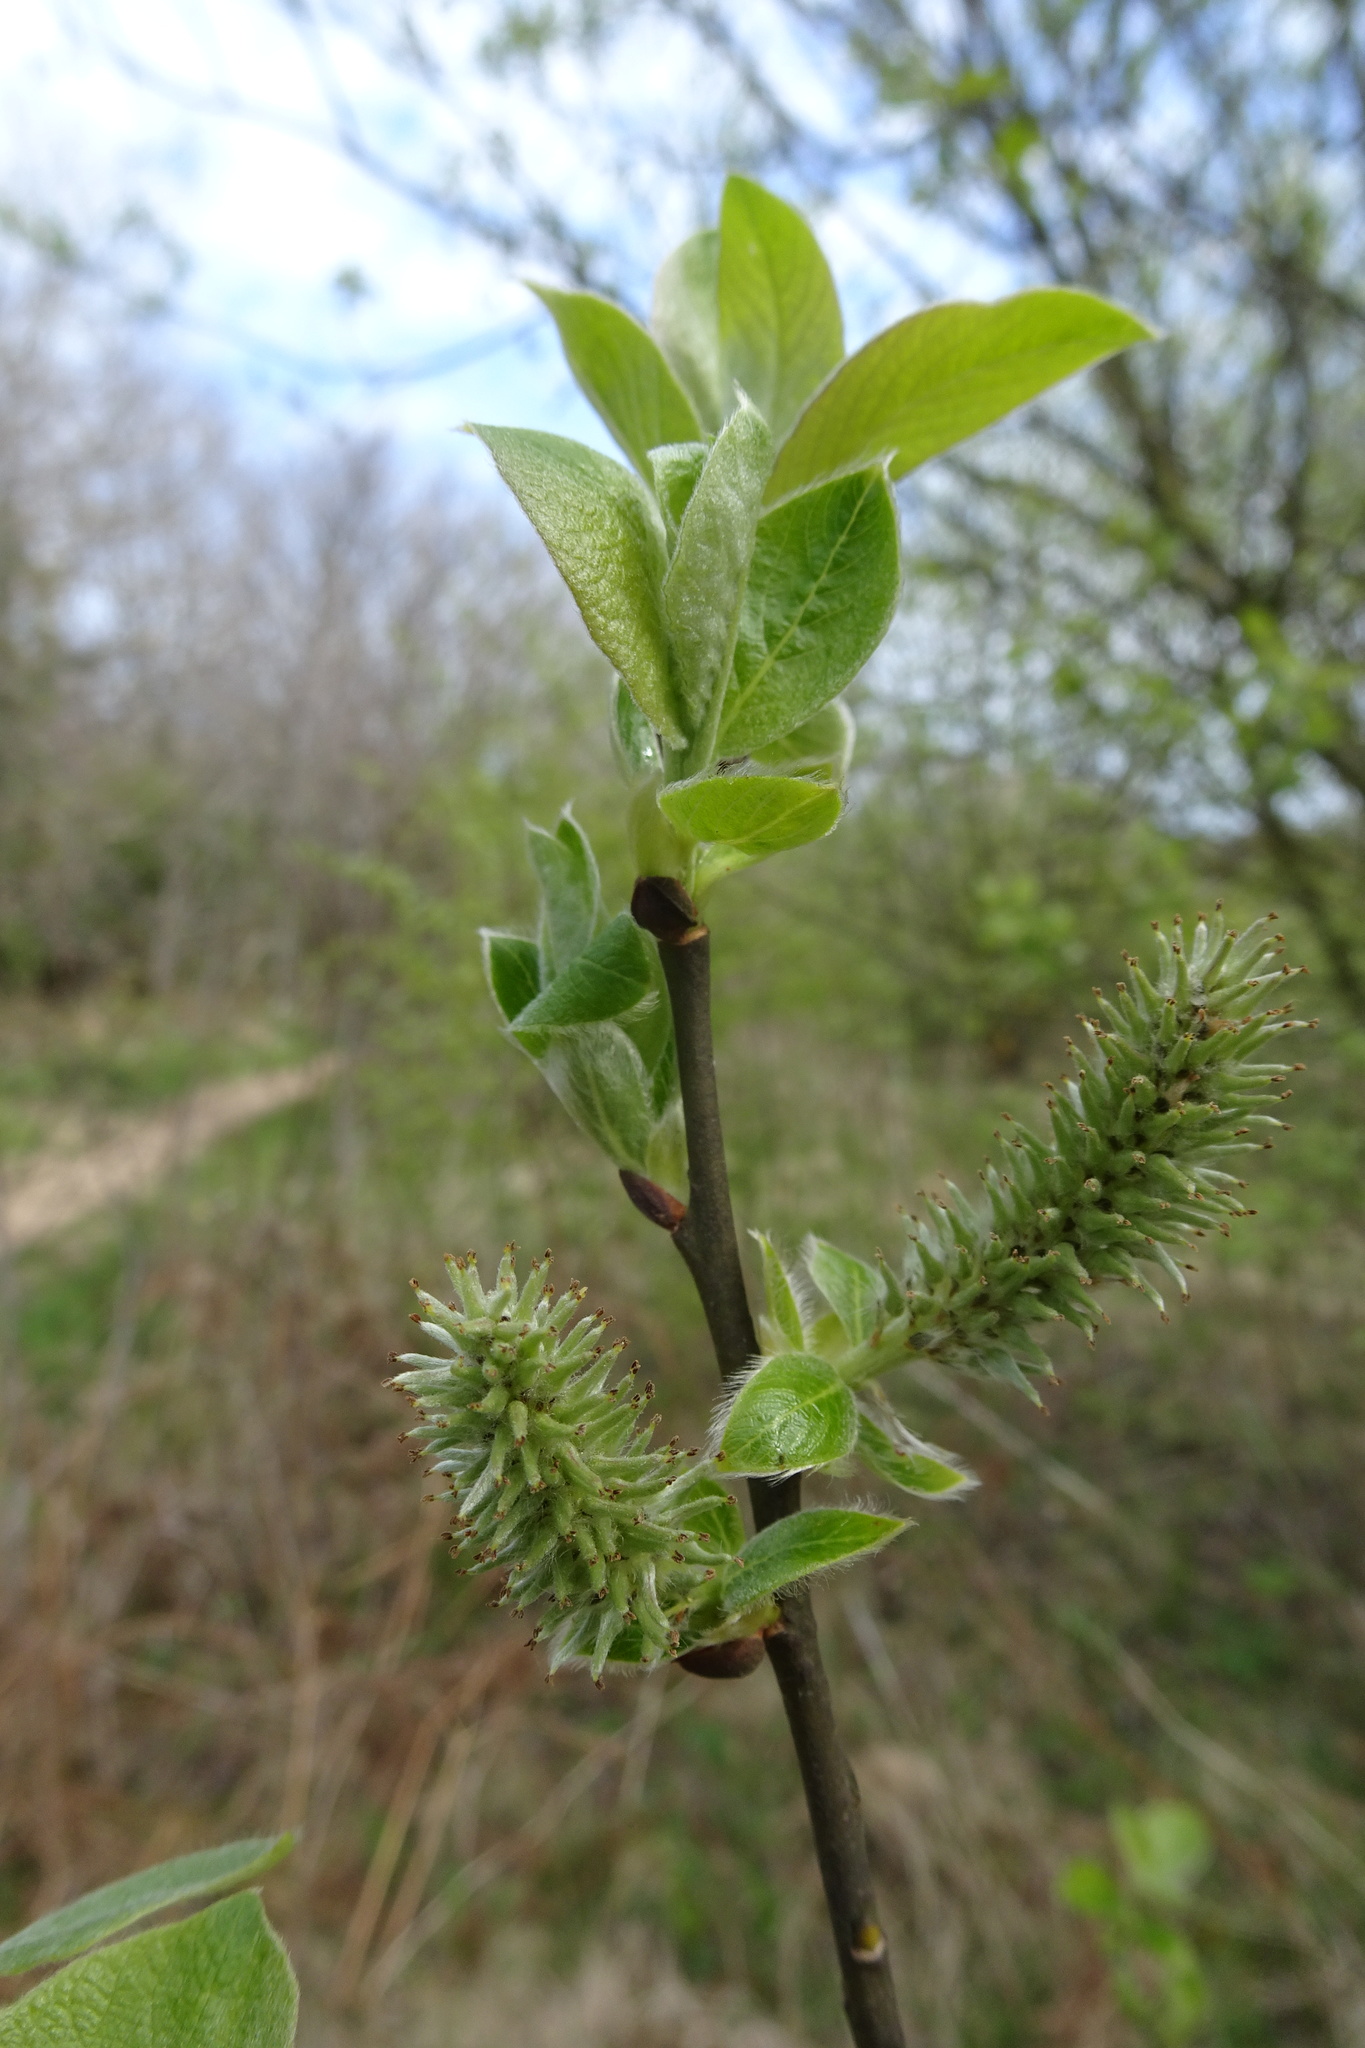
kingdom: Plantae
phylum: Tracheophyta
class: Magnoliopsida
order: Malpighiales
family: Salicaceae
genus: Salix
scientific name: Salix caprea
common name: Goat willow
